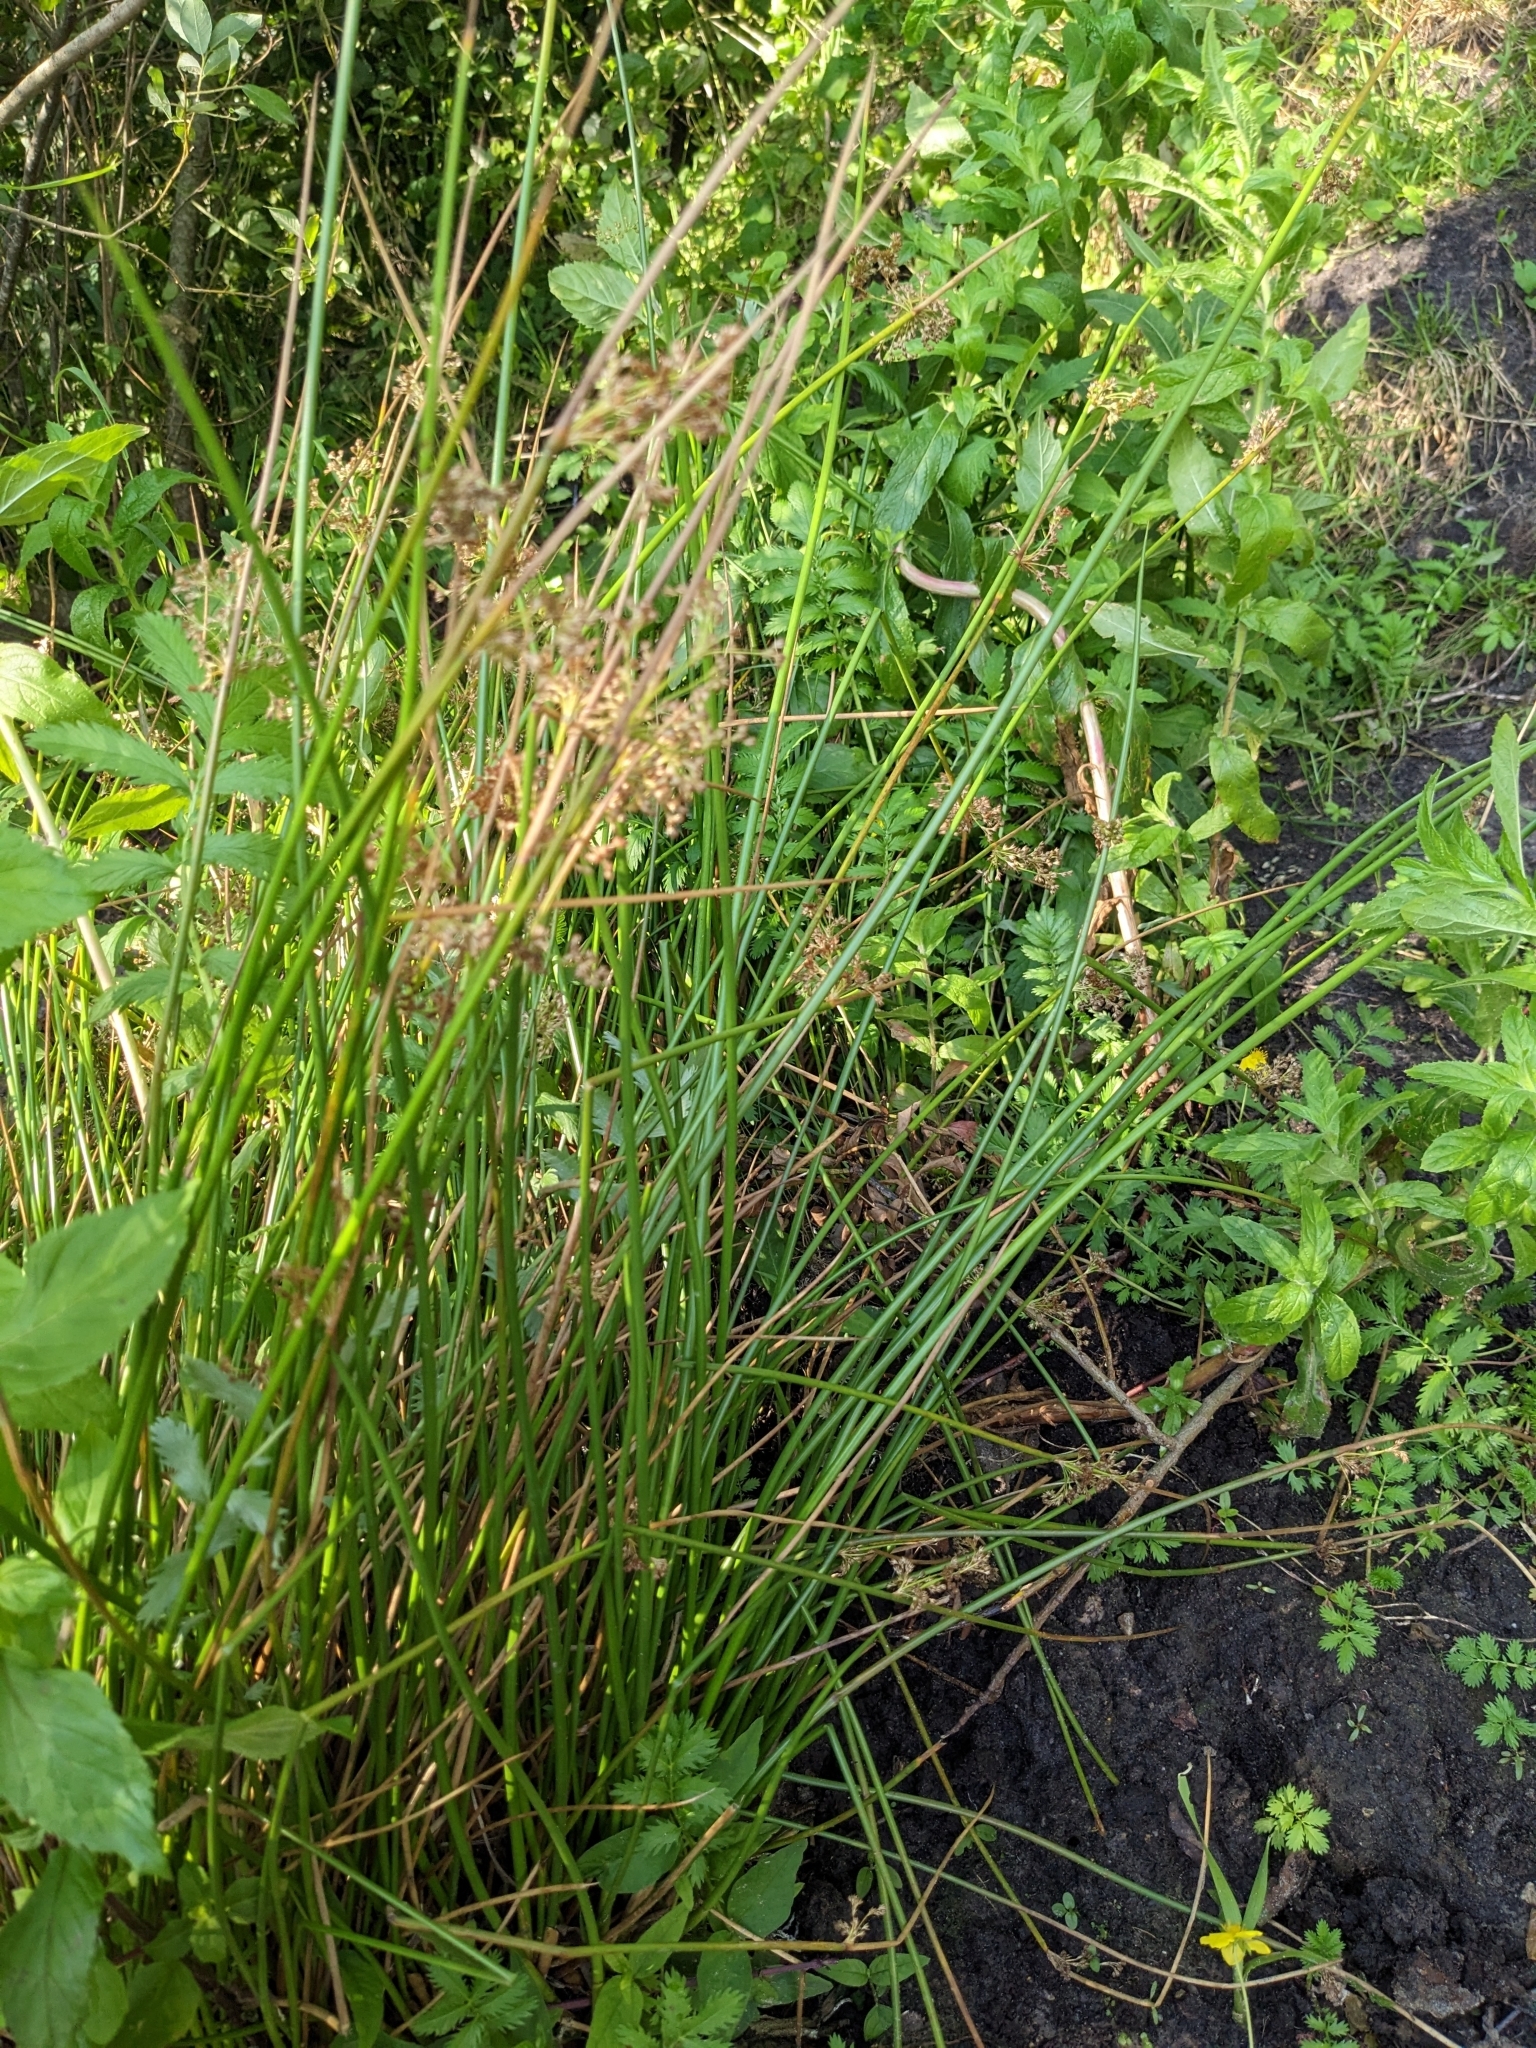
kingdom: Plantae
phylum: Tracheophyta
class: Liliopsida
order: Poales
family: Juncaceae
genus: Juncus
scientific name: Juncus effusus
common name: Soft rush
